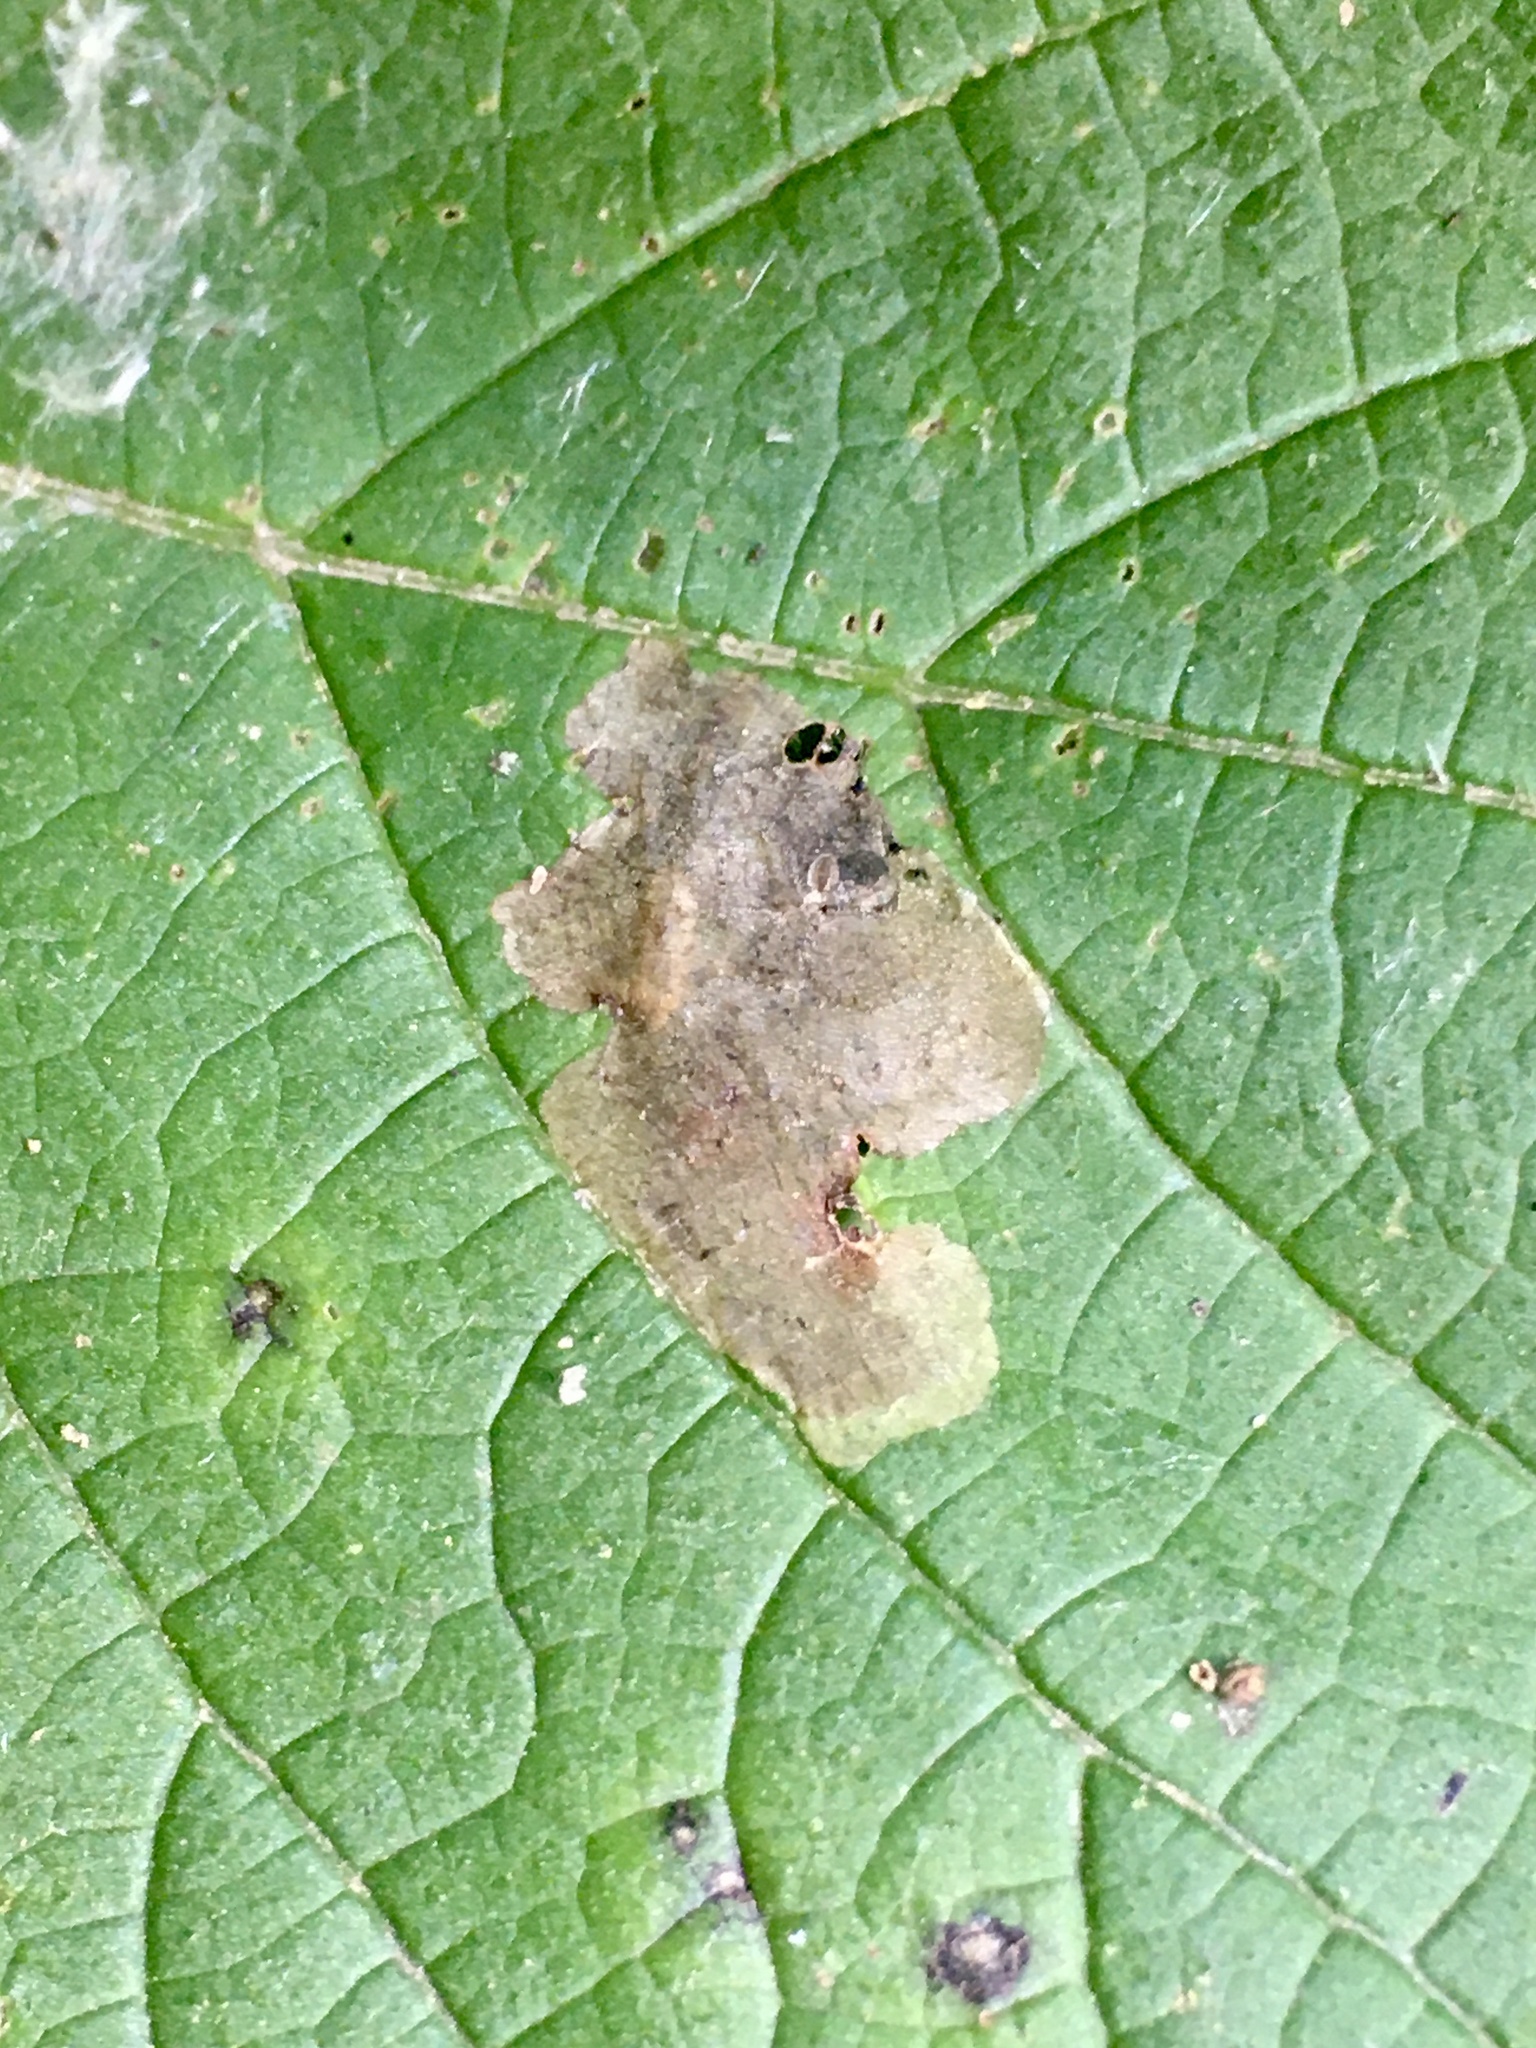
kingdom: Animalia
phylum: Arthropoda
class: Insecta
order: Coleoptera
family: Chrysomelidae
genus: Sumitrosis
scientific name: Sumitrosis rosea
